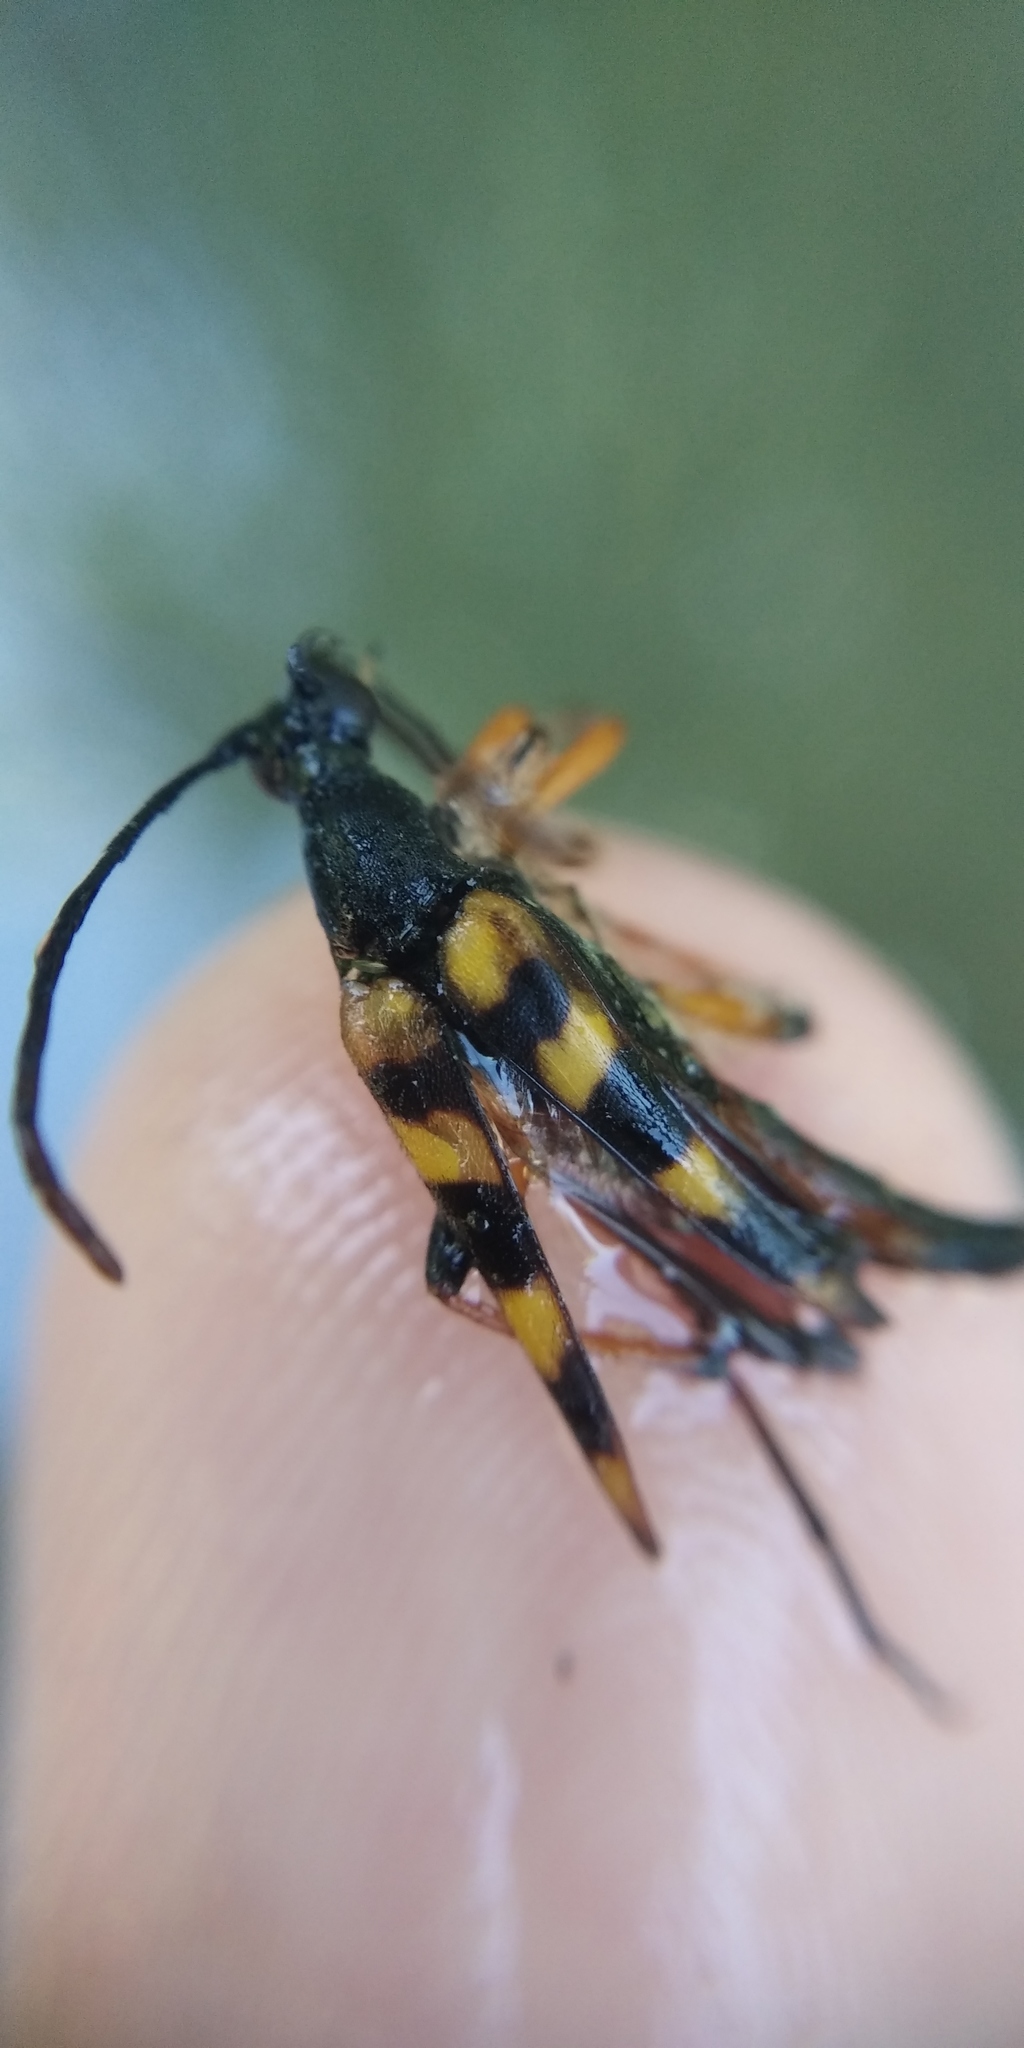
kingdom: Animalia
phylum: Arthropoda
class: Insecta
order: Coleoptera
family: Cerambycidae
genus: Strangalia
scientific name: Strangalia attenuata
